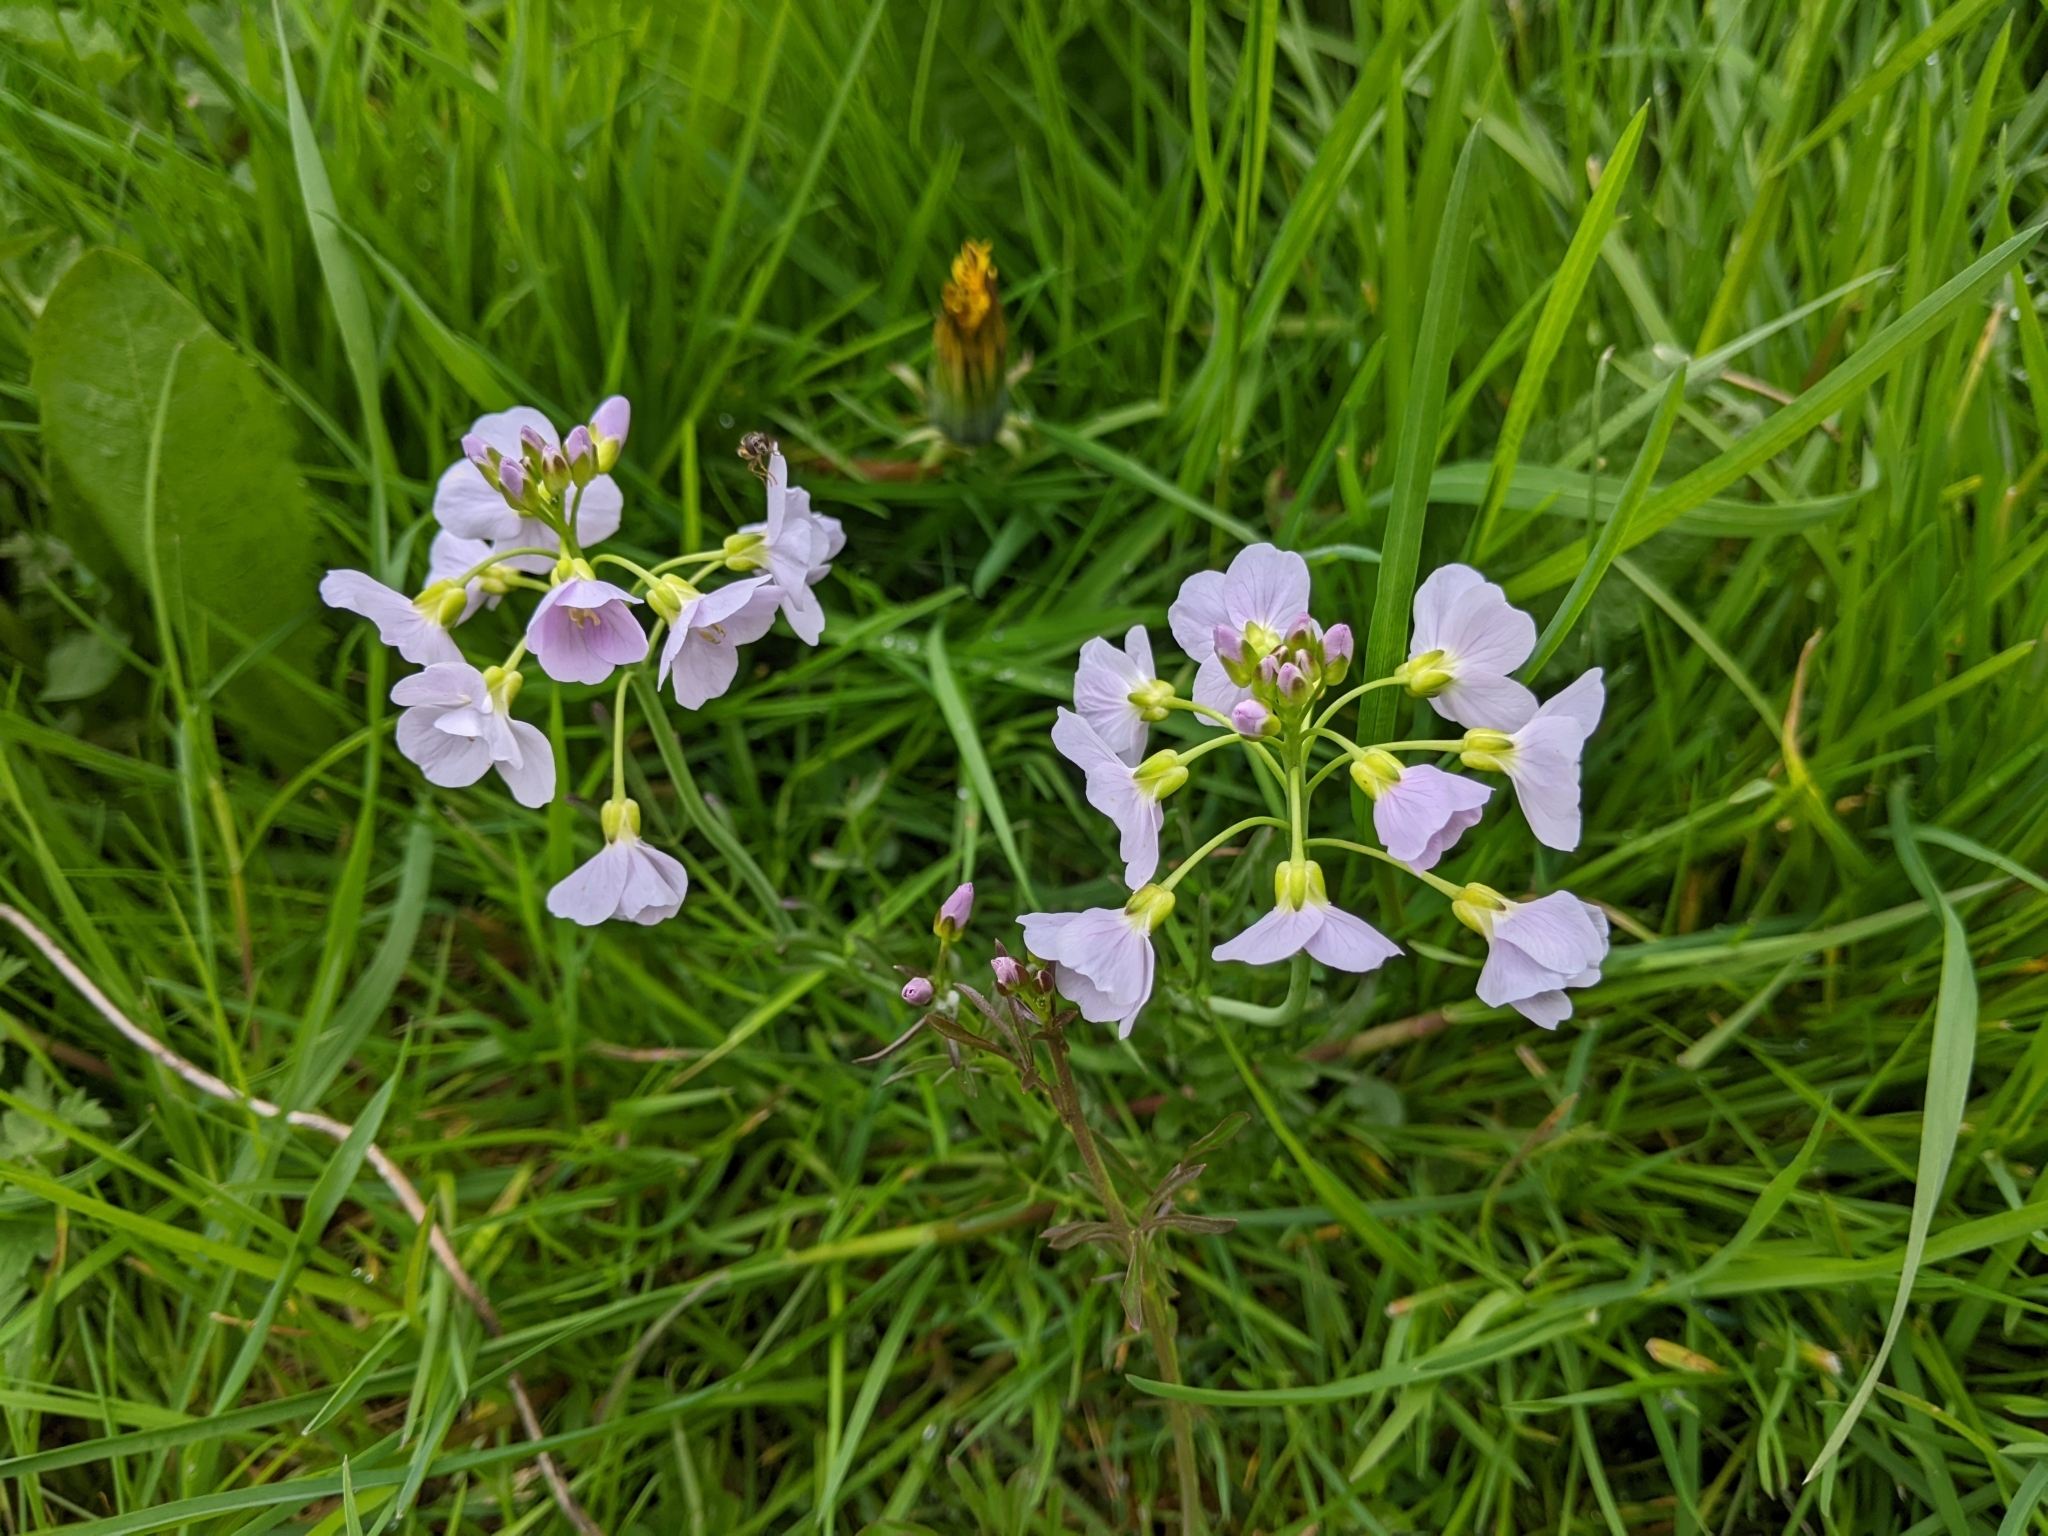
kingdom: Plantae
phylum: Tracheophyta
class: Magnoliopsida
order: Brassicales
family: Brassicaceae
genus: Cardamine
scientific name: Cardamine pratensis
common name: Cuckoo flower
